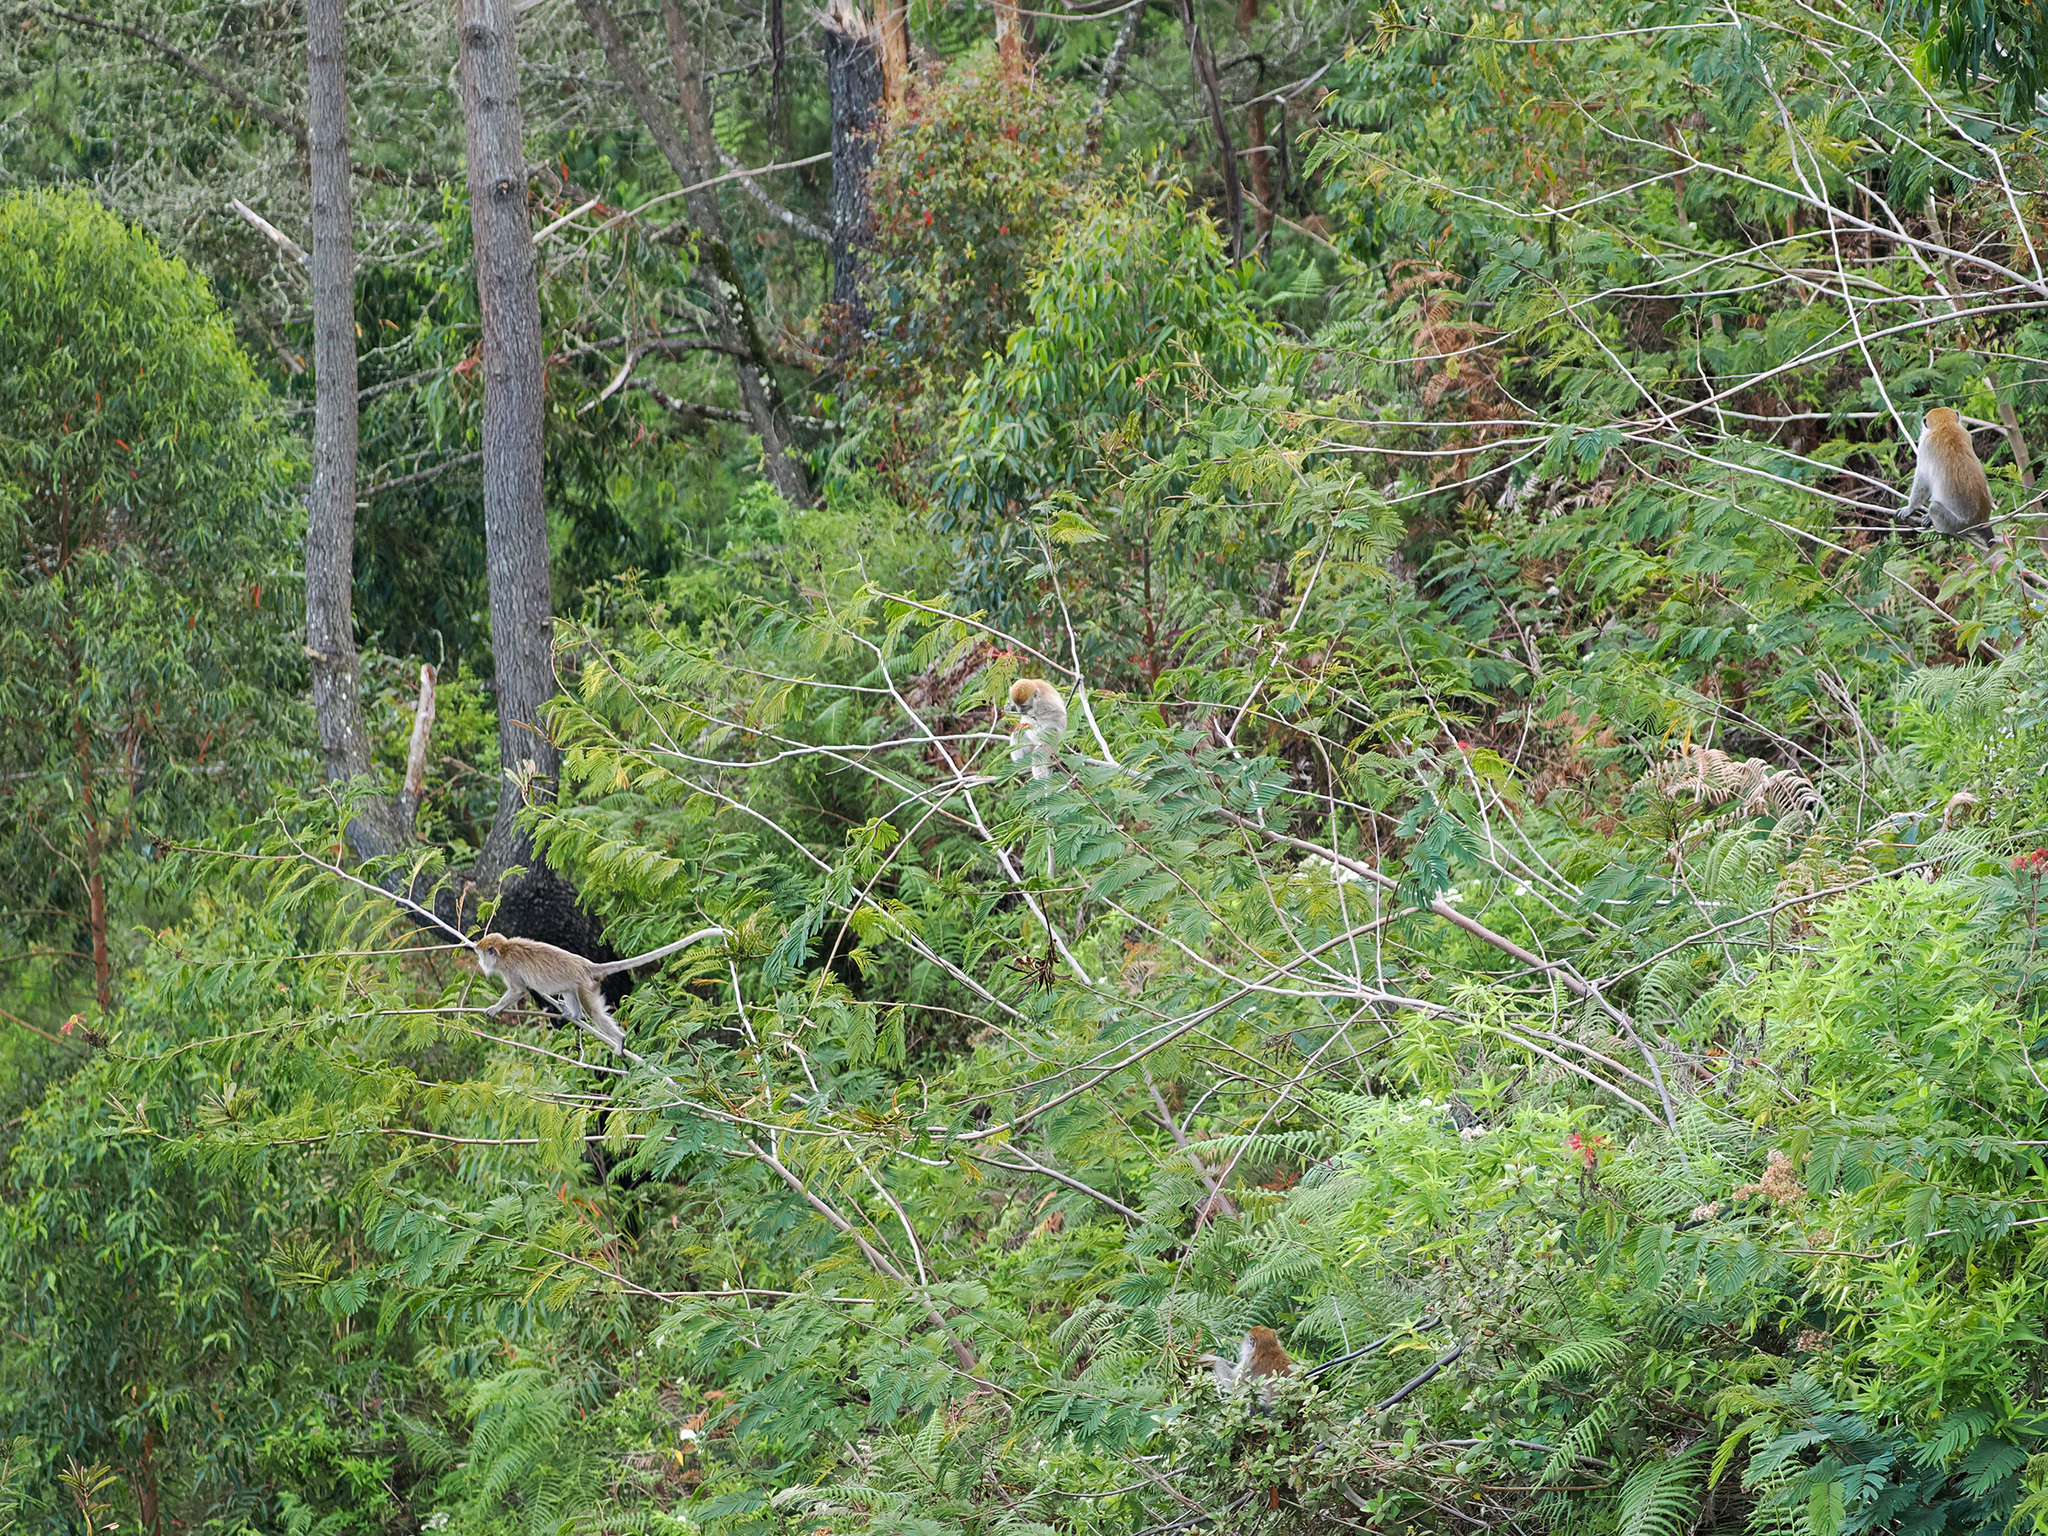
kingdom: Animalia
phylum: Chordata
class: Mammalia
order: Primates
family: Cercopithecidae
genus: Macaca
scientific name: Macaca fascicularis
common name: Crab-eating macaque
